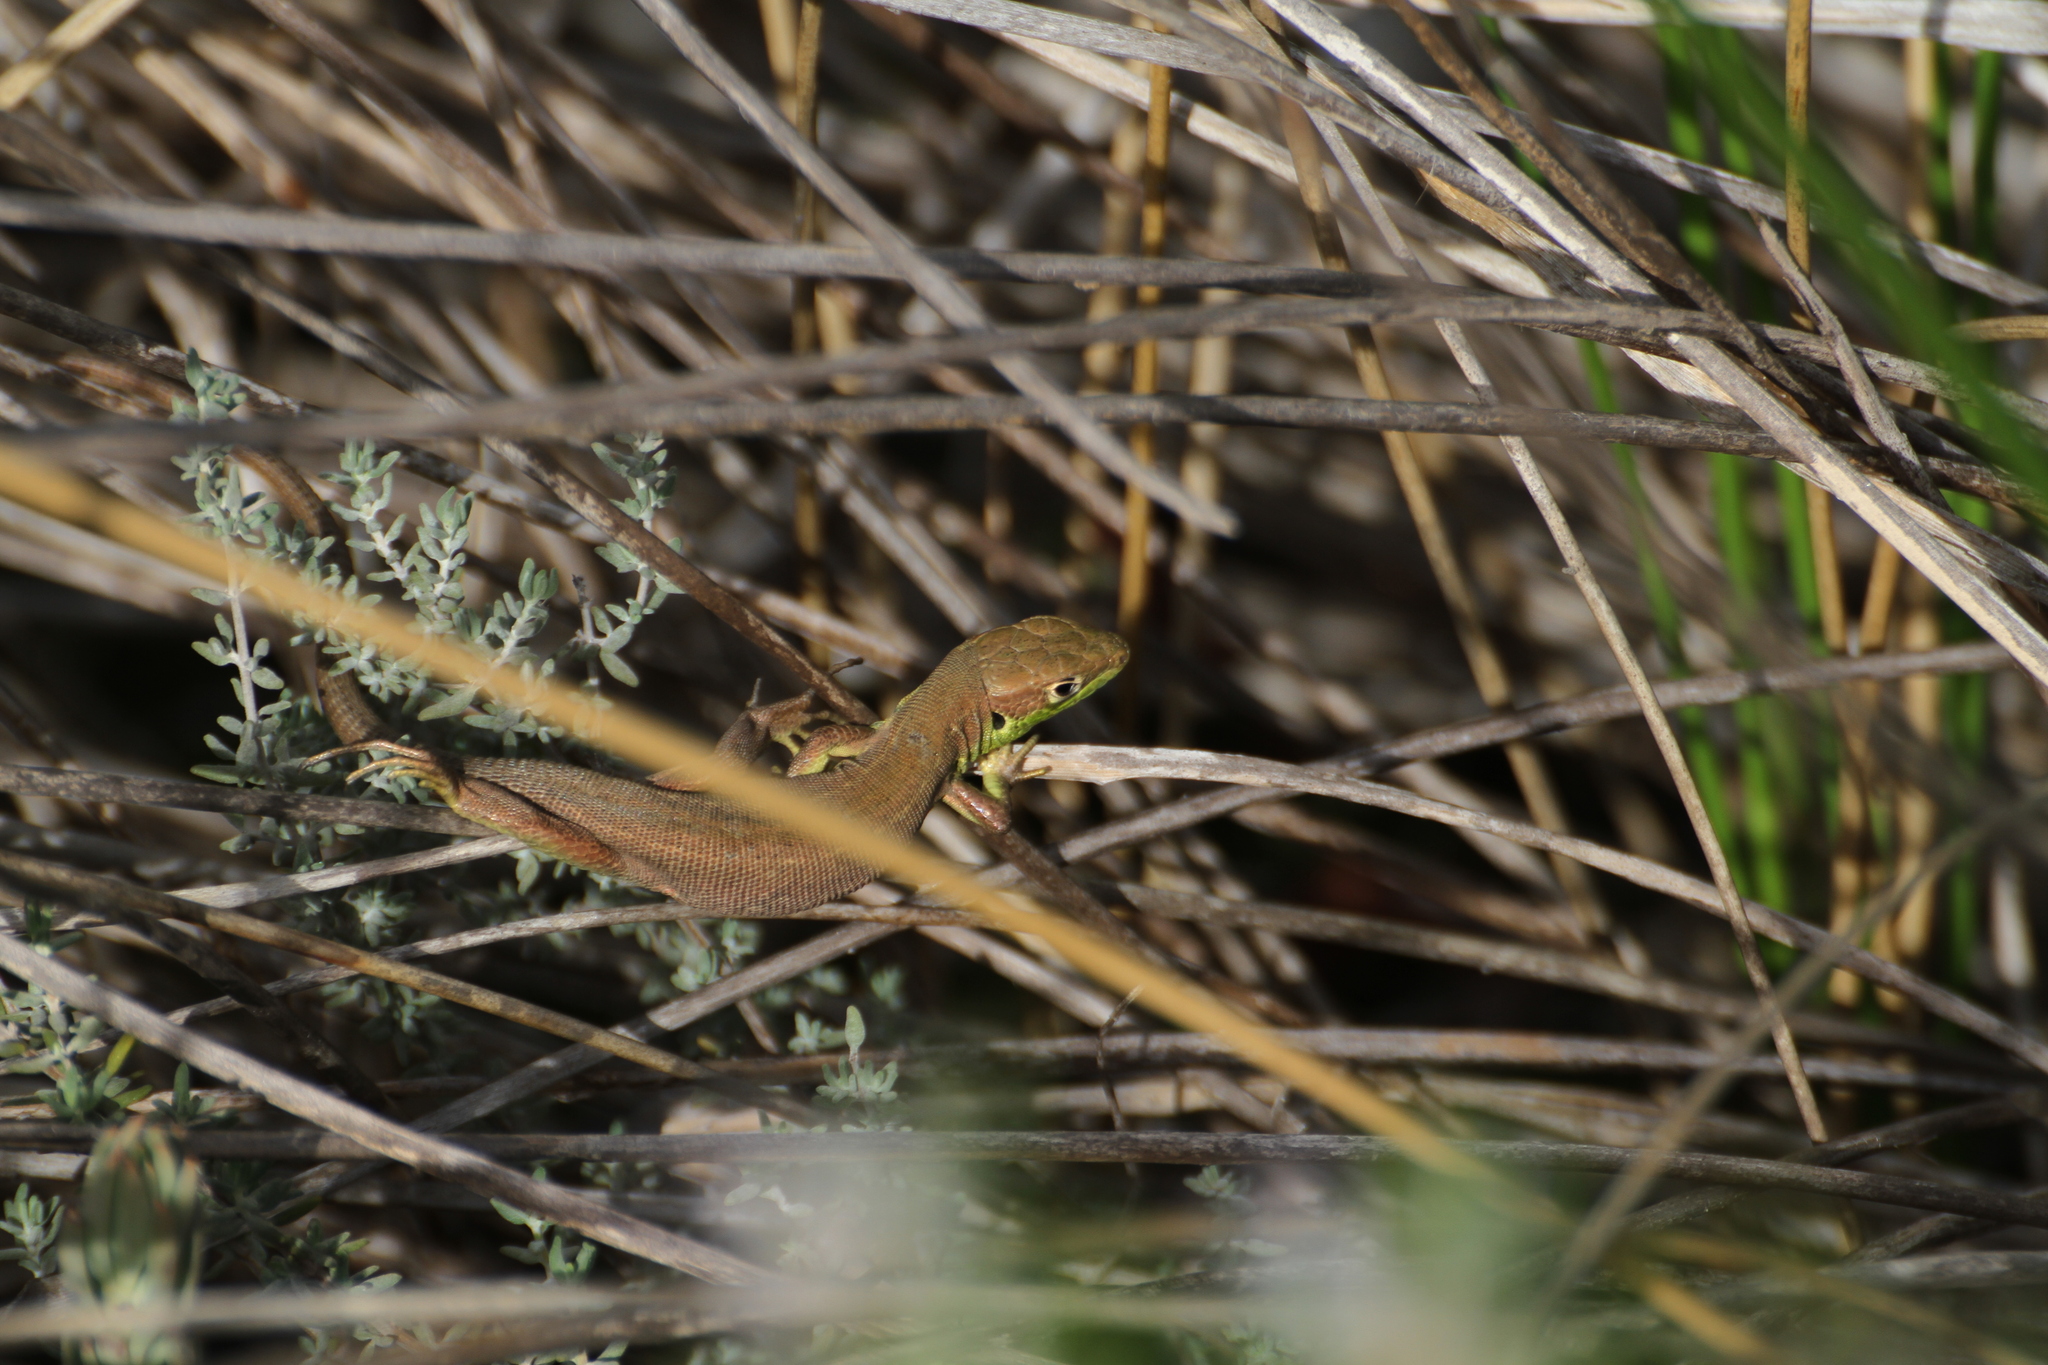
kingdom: Animalia
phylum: Chordata
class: Squamata
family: Lacertidae
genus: Lacerta
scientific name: Lacerta bilineata
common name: Western green lizard
